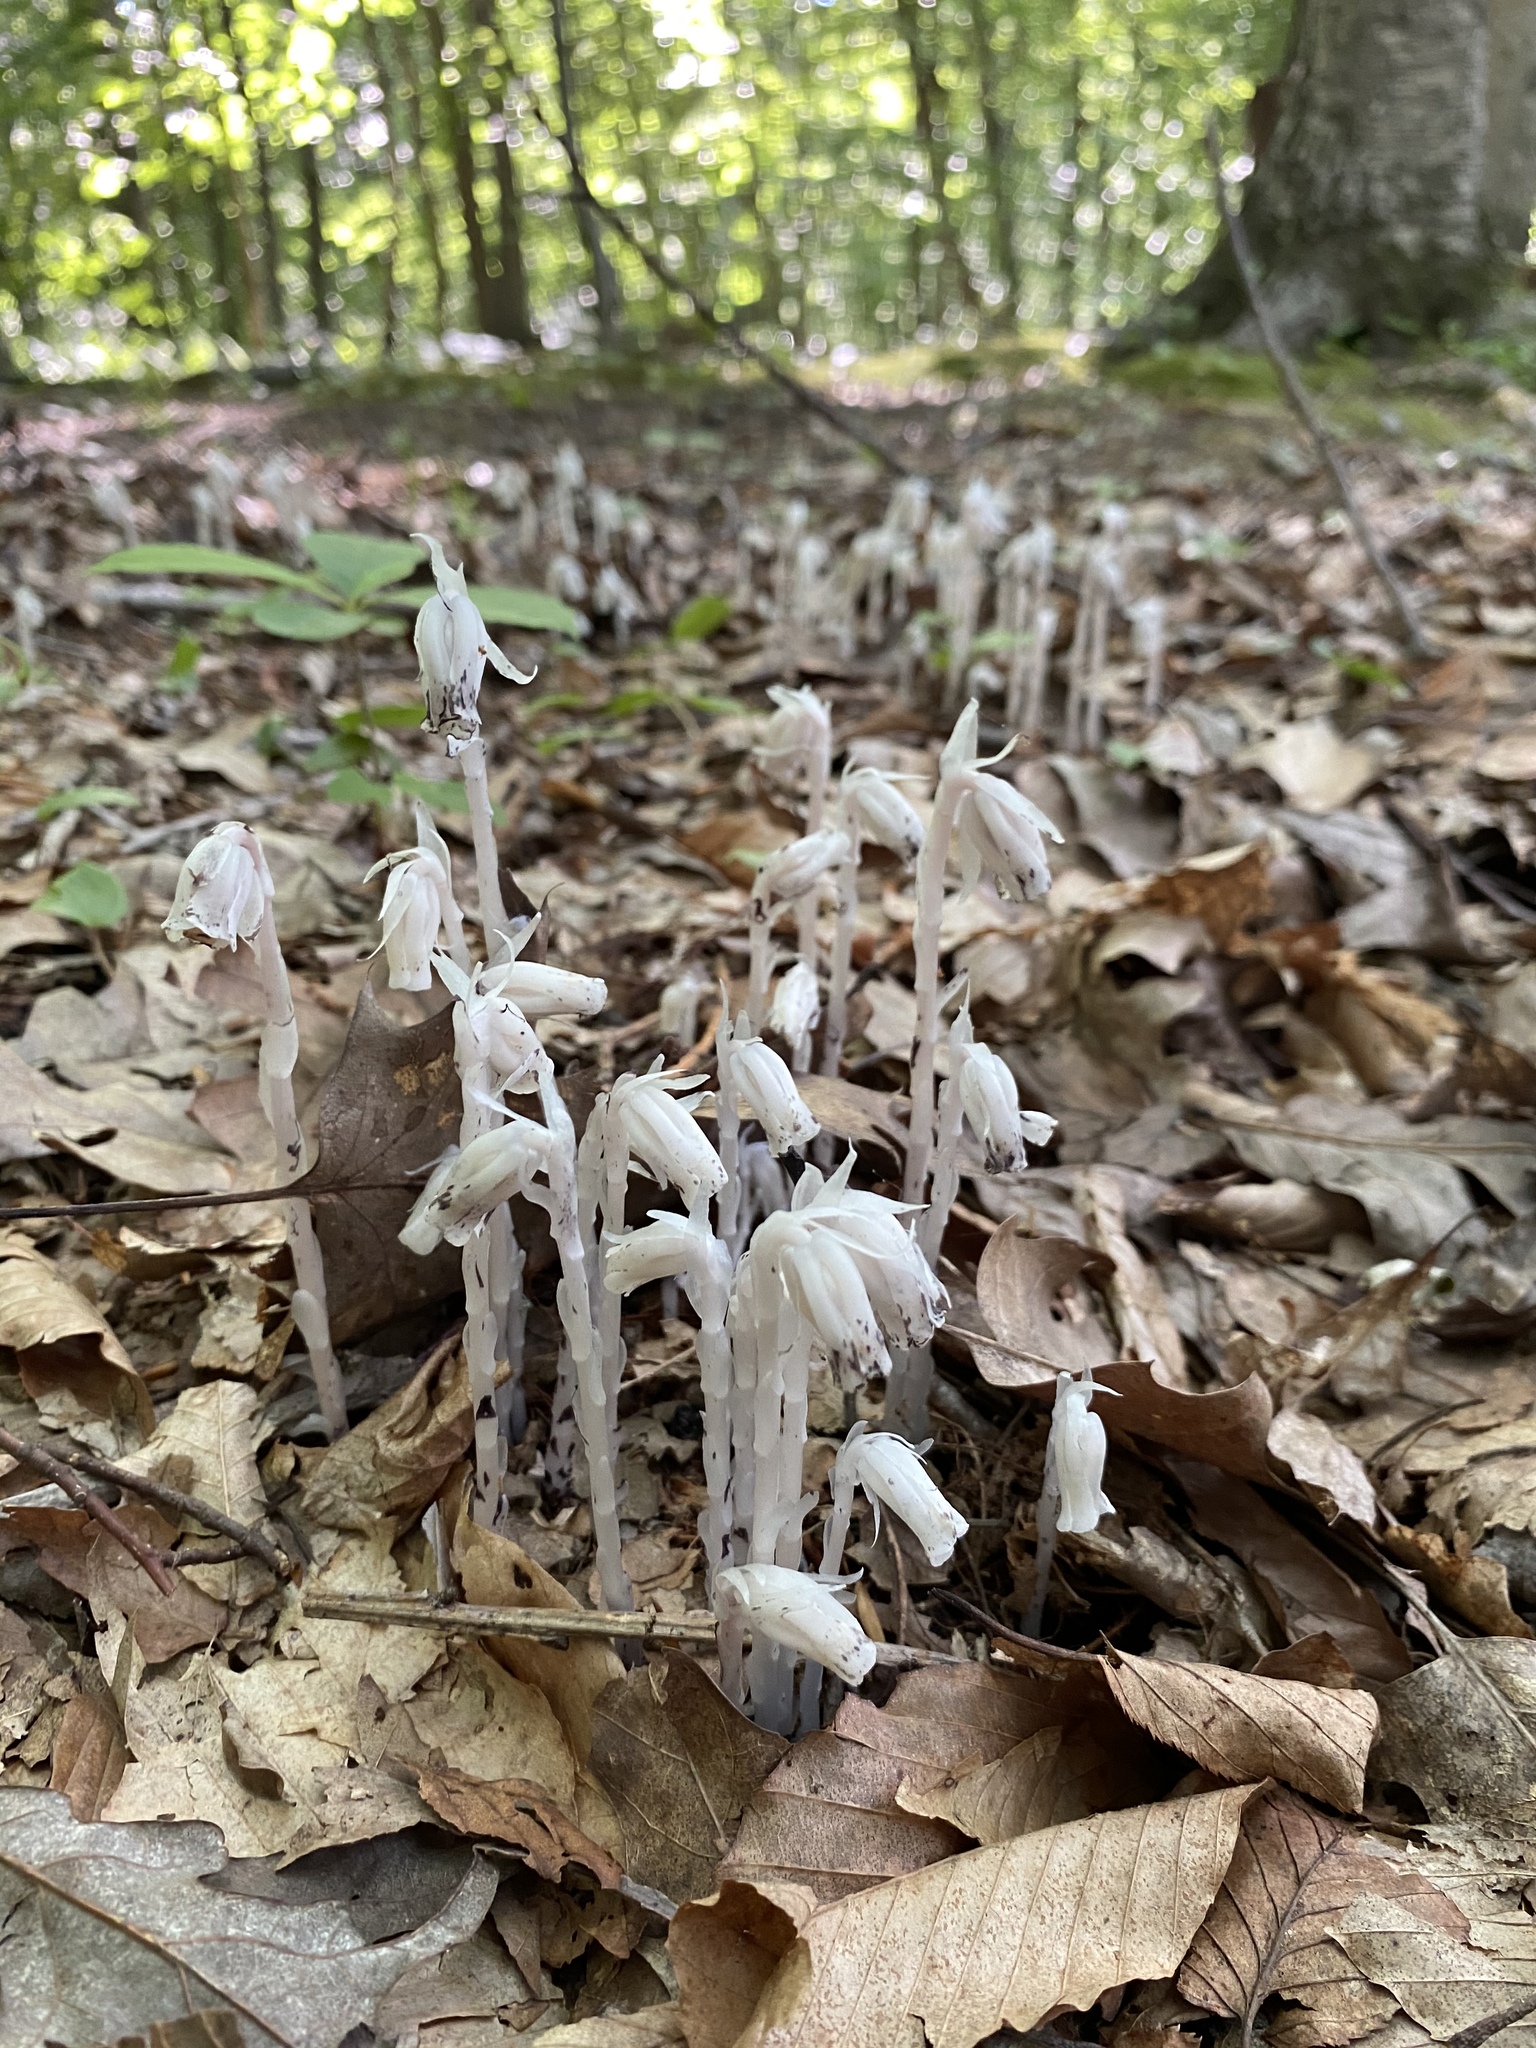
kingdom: Plantae
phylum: Tracheophyta
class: Magnoliopsida
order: Ericales
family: Ericaceae
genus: Monotropa
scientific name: Monotropa uniflora
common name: Convulsion root
